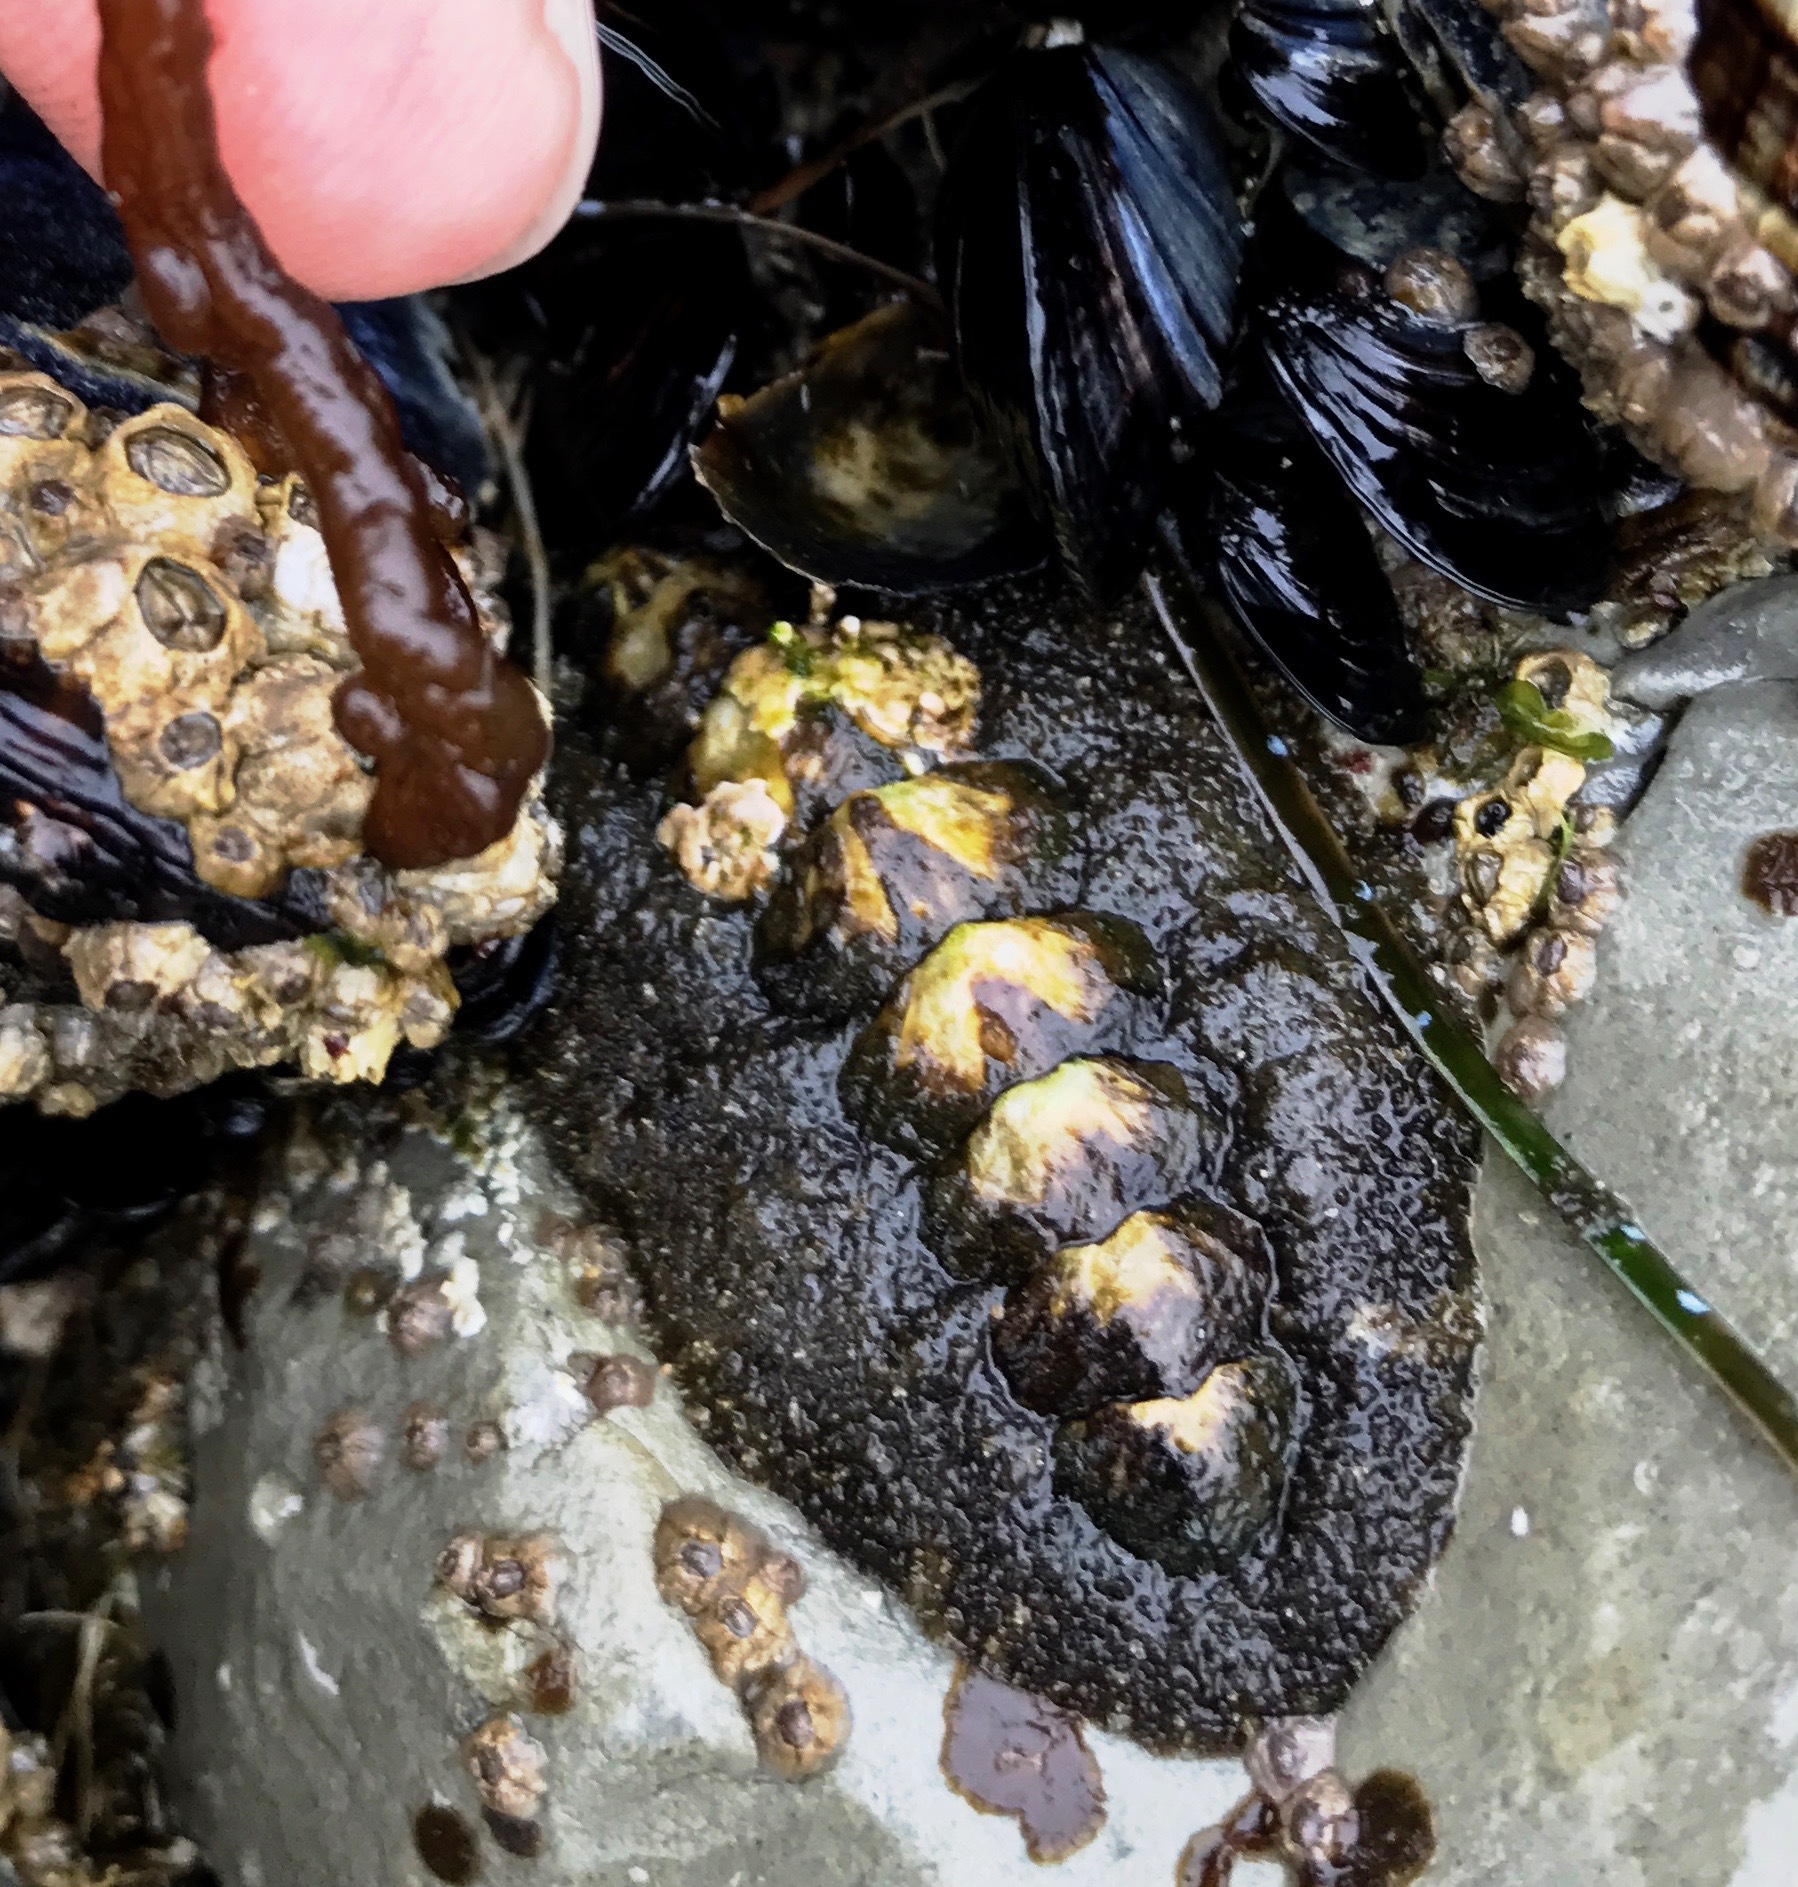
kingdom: Animalia
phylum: Mollusca
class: Polyplacophora
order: Chitonida
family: Tonicellidae
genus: Nuttallina
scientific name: Nuttallina californica
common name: California nuttall chiton
